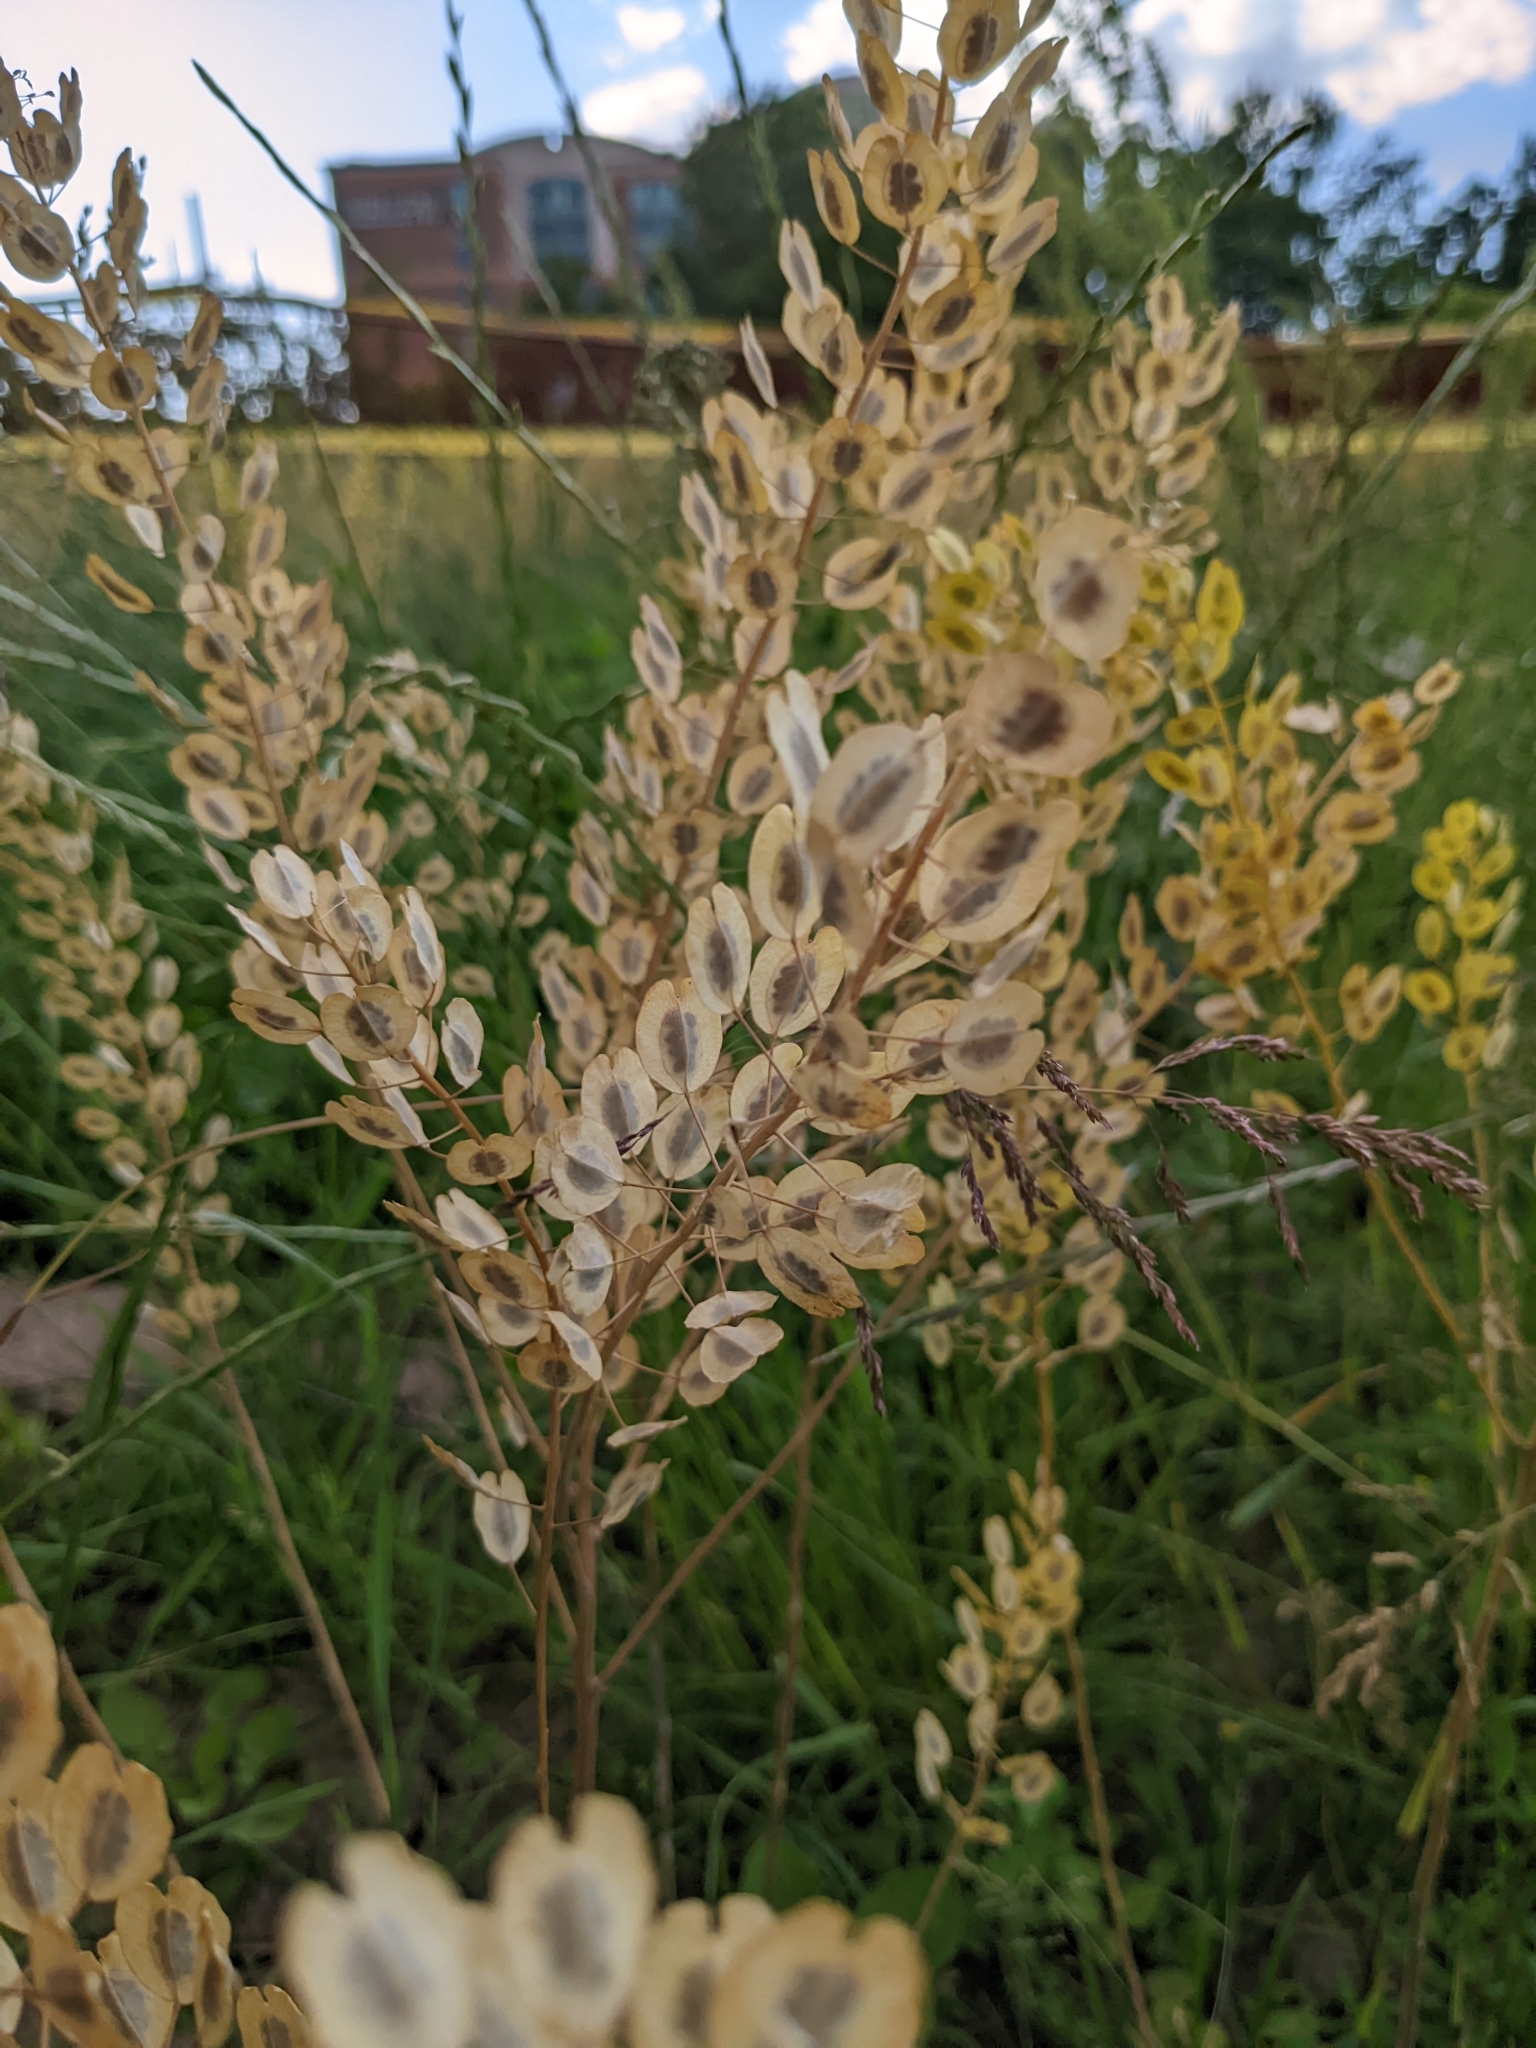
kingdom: Plantae
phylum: Tracheophyta
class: Magnoliopsida
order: Brassicales
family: Brassicaceae
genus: Thlaspi
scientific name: Thlaspi arvense
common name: Field pennycress
